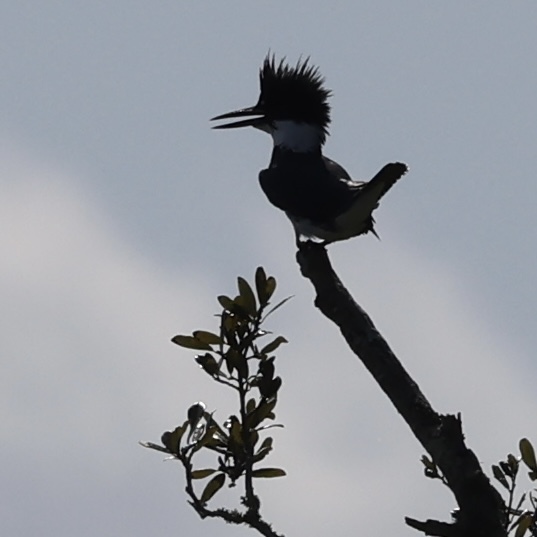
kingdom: Animalia
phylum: Chordata
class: Aves
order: Coraciiformes
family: Alcedinidae
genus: Megaceryle
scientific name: Megaceryle alcyon
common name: Belted kingfisher
